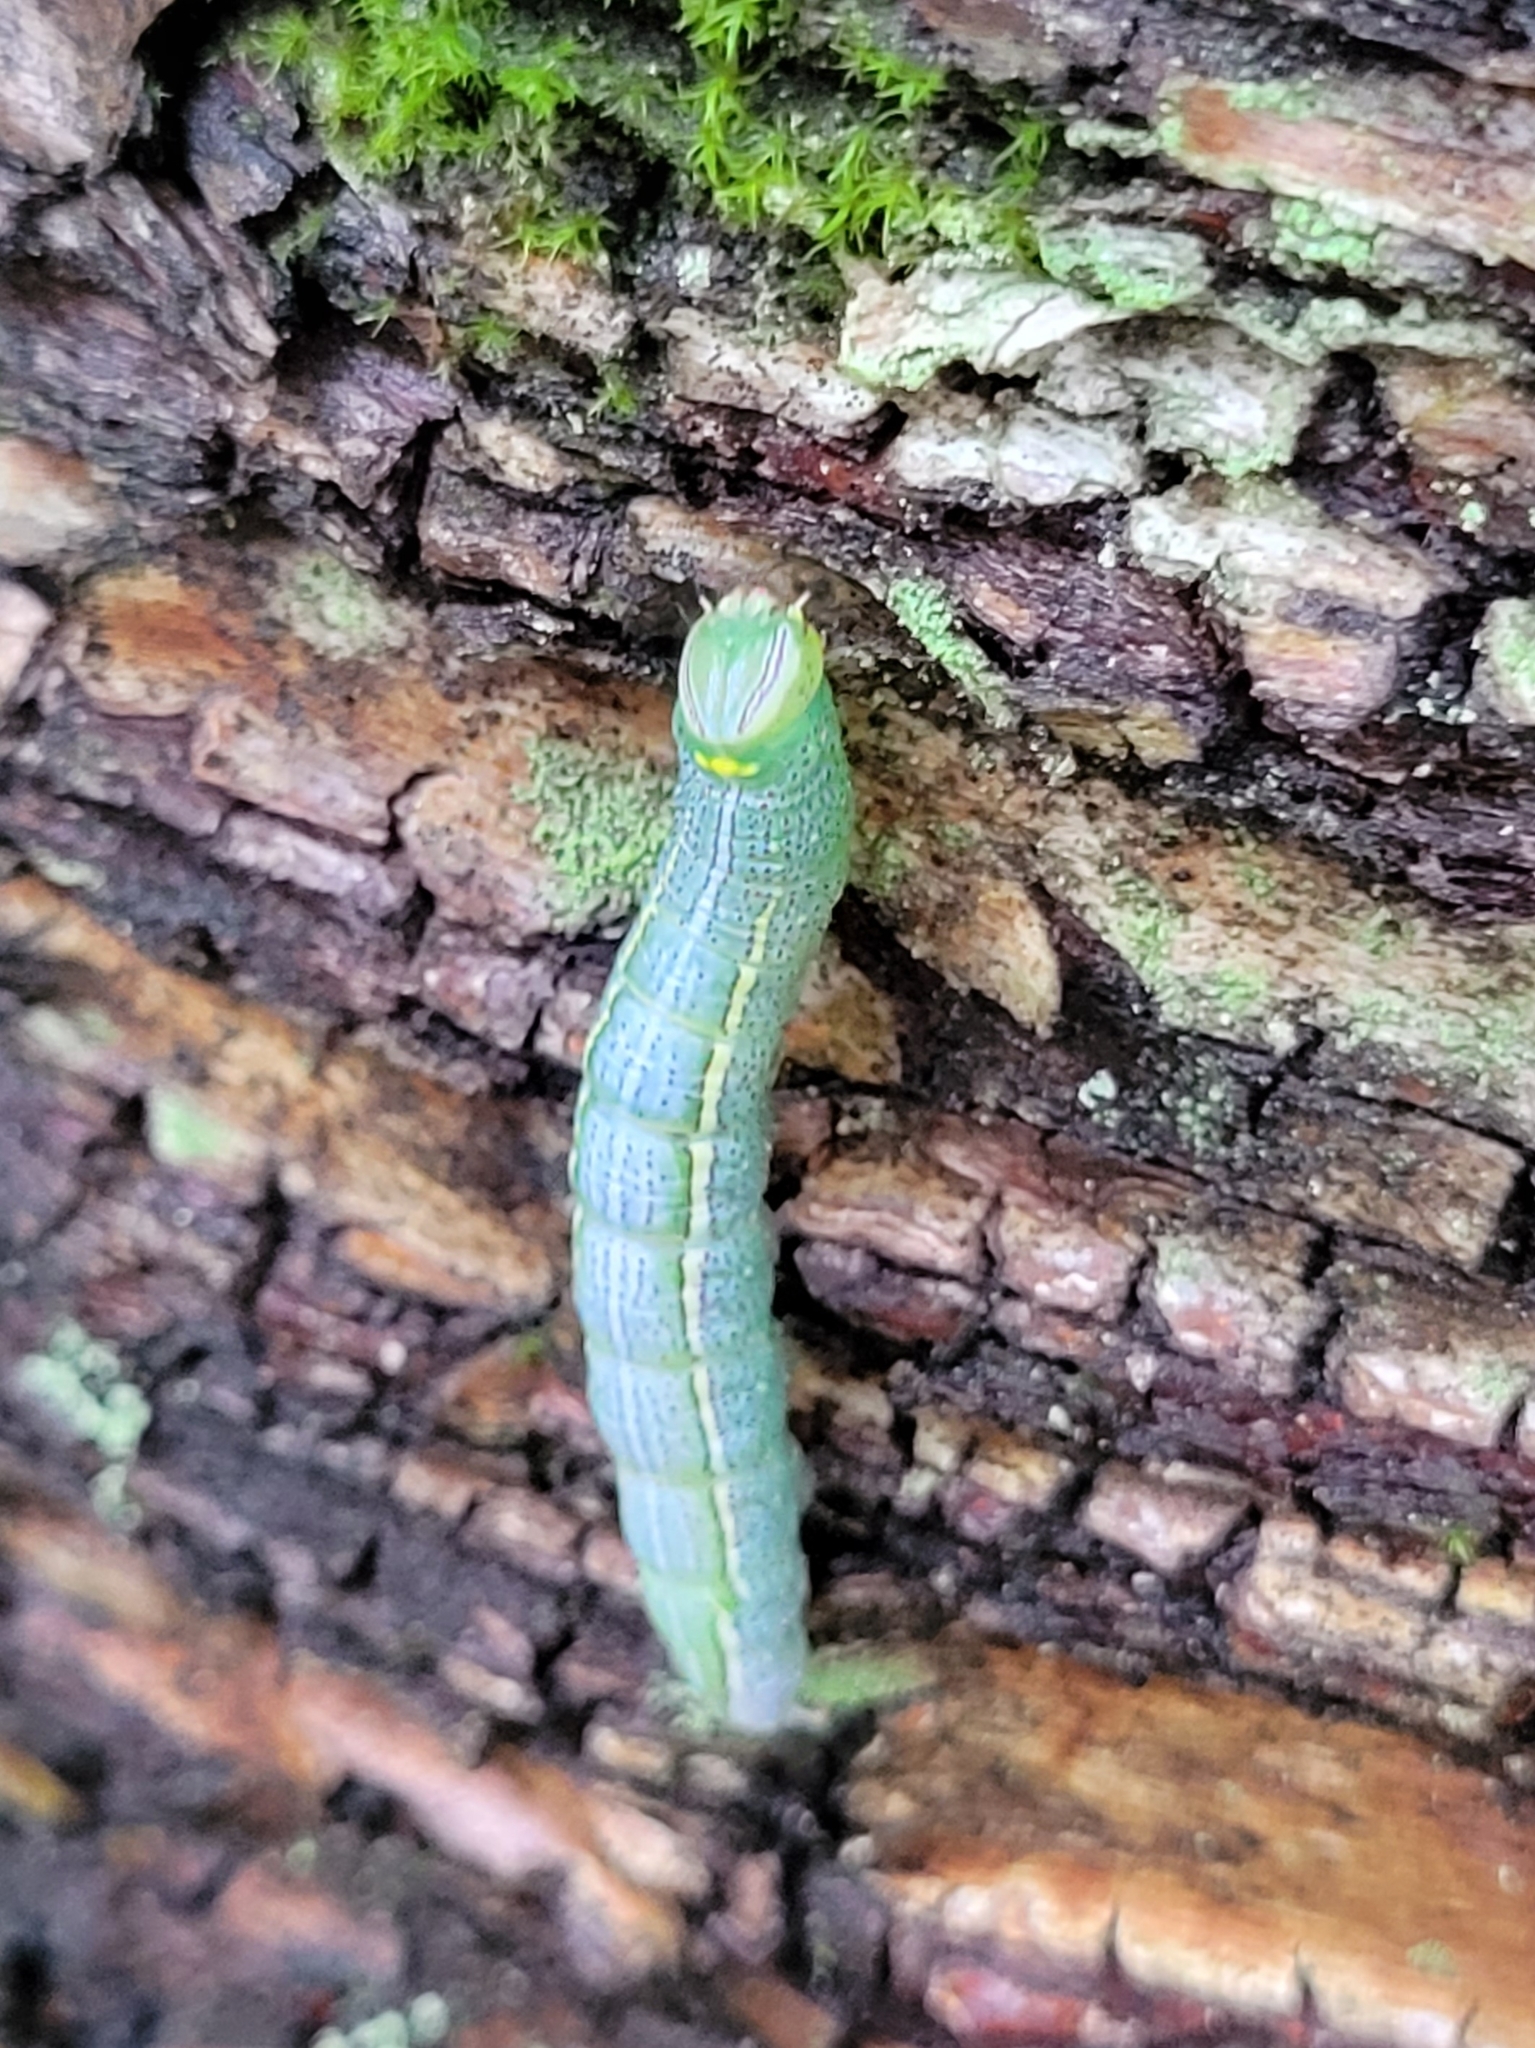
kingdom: Animalia
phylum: Arthropoda
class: Insecta
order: Lepidoptera
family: Notodontidae
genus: Disphragis
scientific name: Disphragis Cecrita guttivitta
